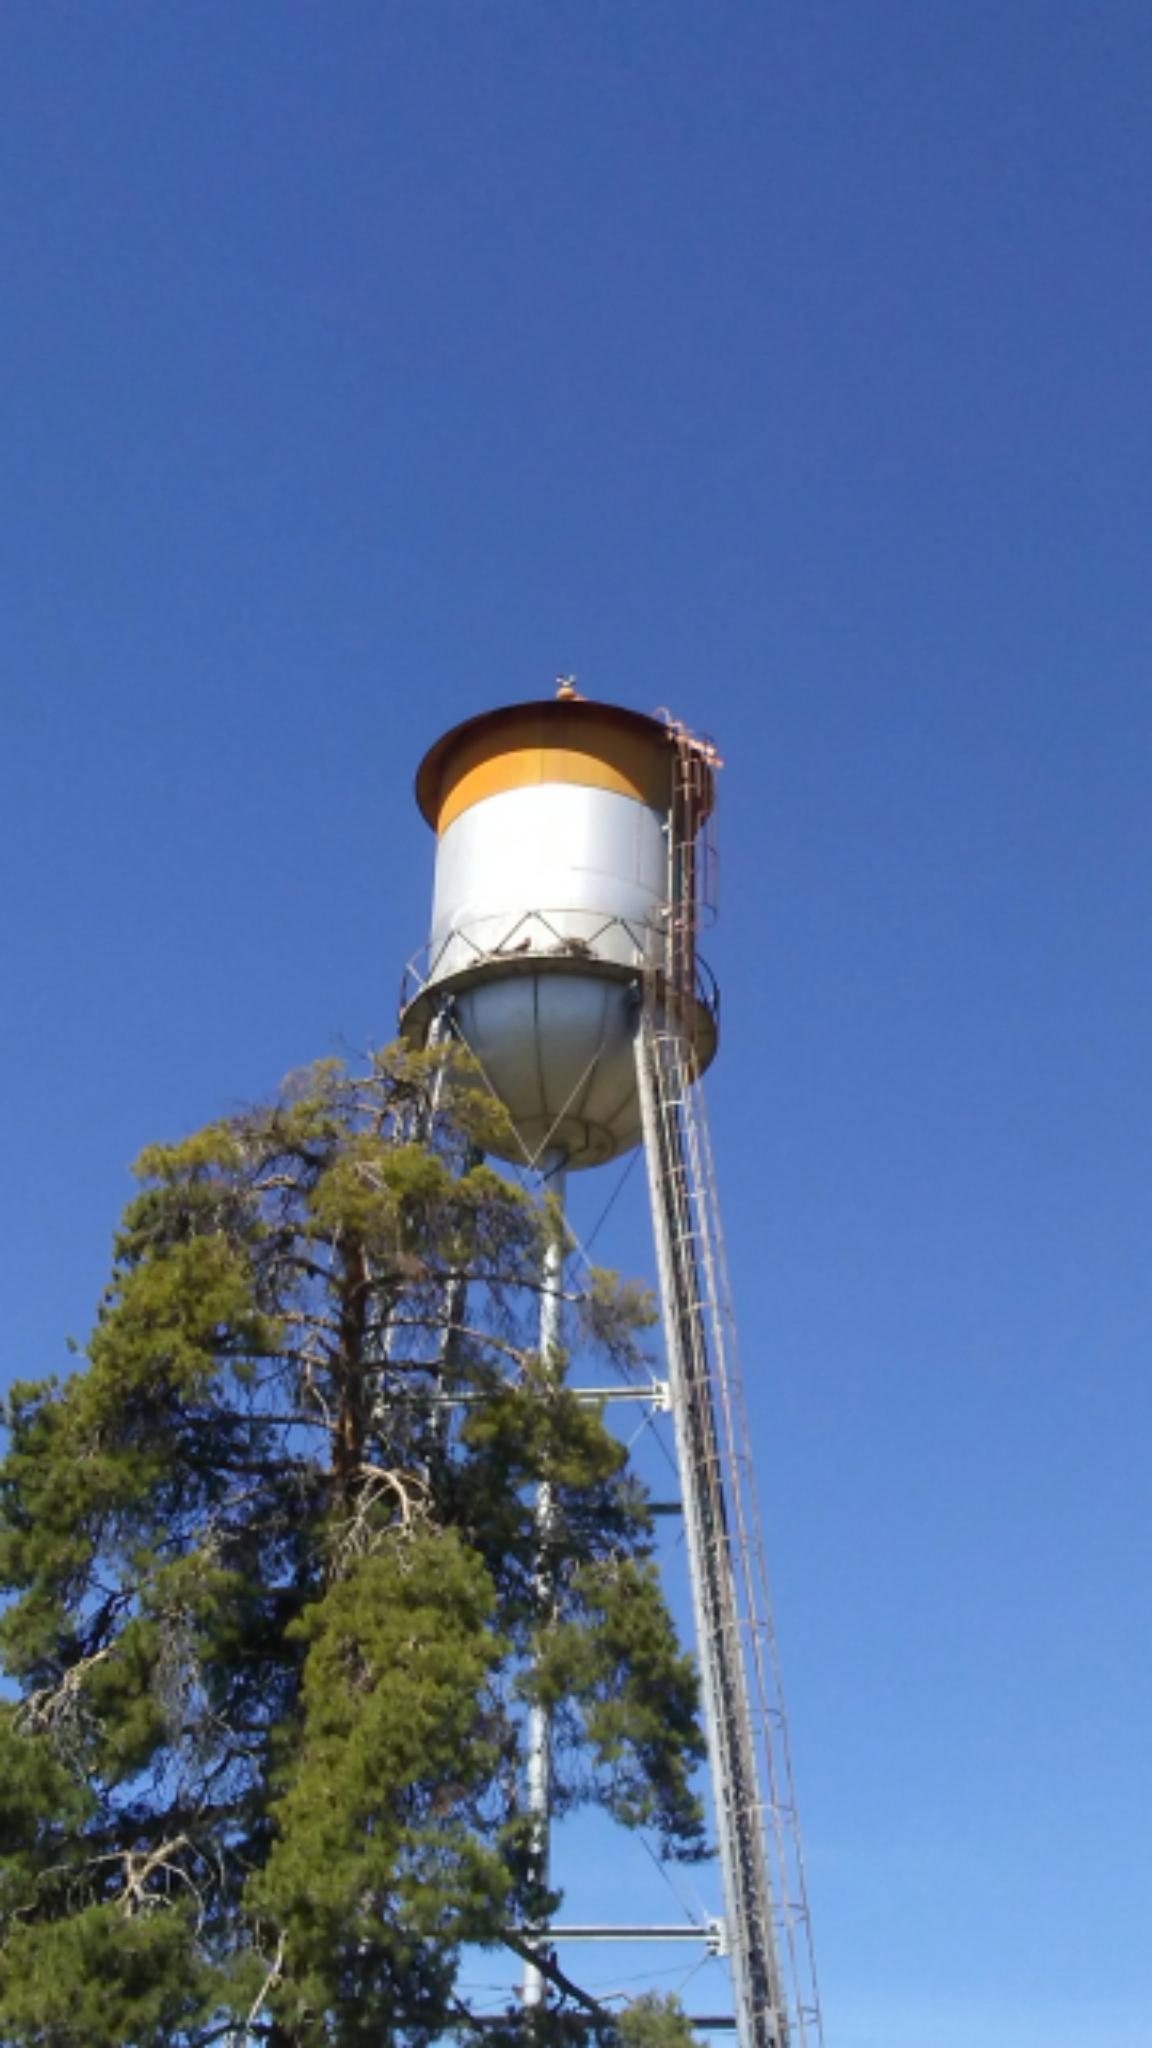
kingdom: Animalia
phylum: Chordata
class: Aves
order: Accipitriformes
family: Accipitridae
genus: Buteo
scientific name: Buteo jamaicensis
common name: Red-tailed hawk
